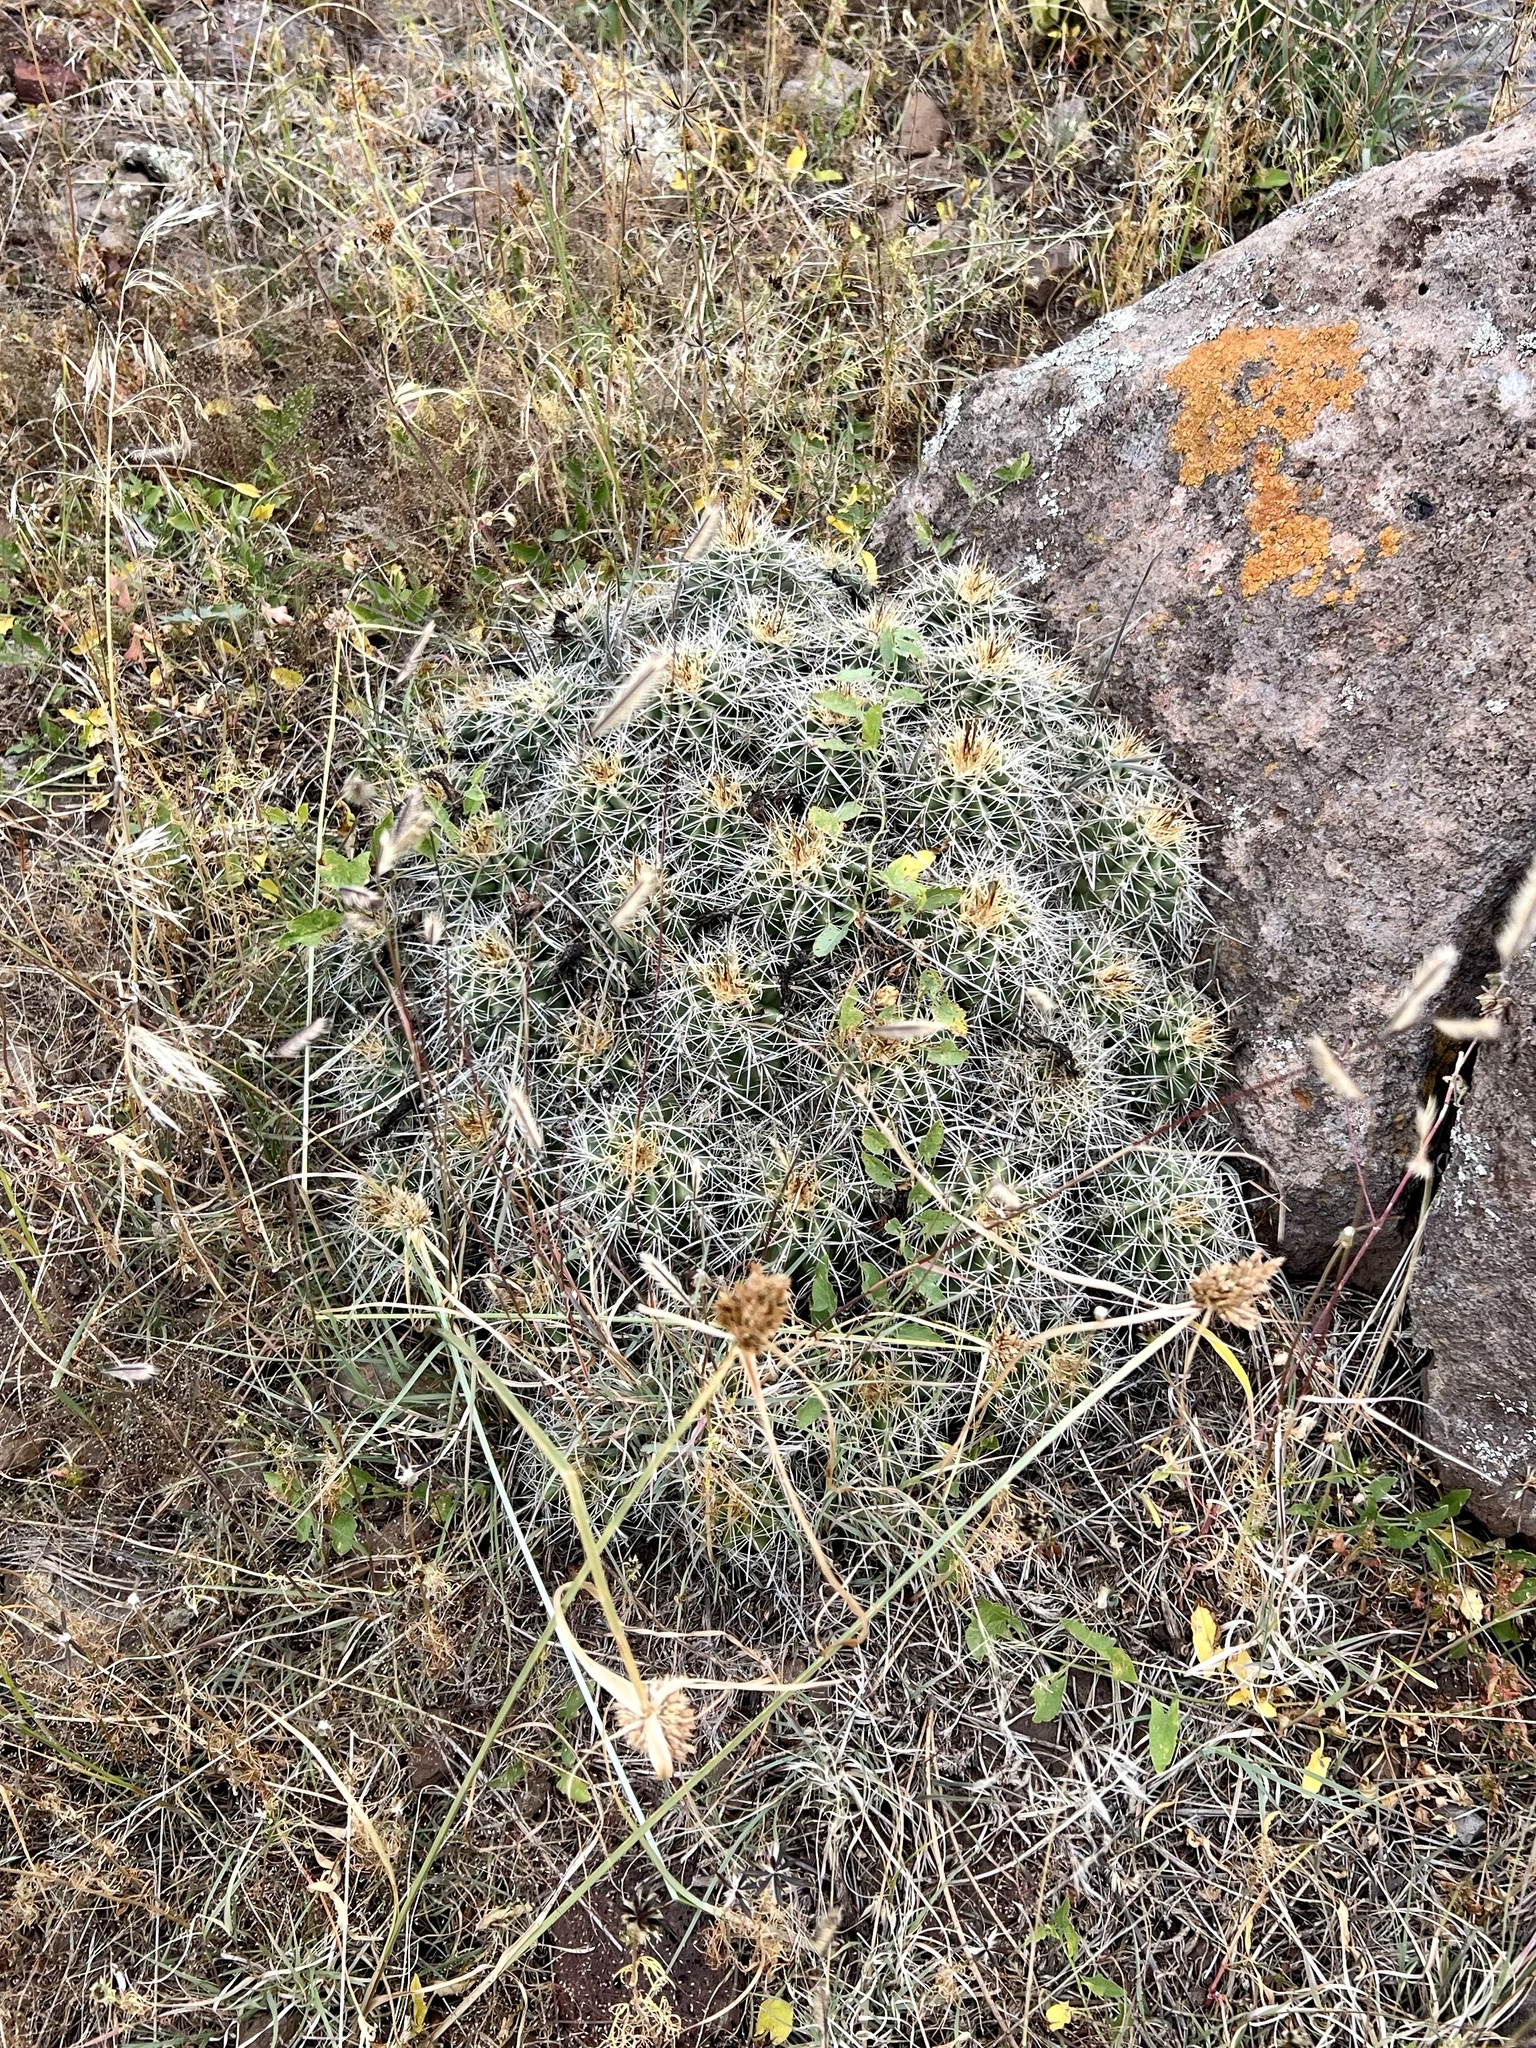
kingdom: Plantae
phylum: Tracheophyta
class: Magnoliopsida
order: Caryophyllales
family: Cactaceae
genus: Echinocereus
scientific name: Echinocereus bakeri
